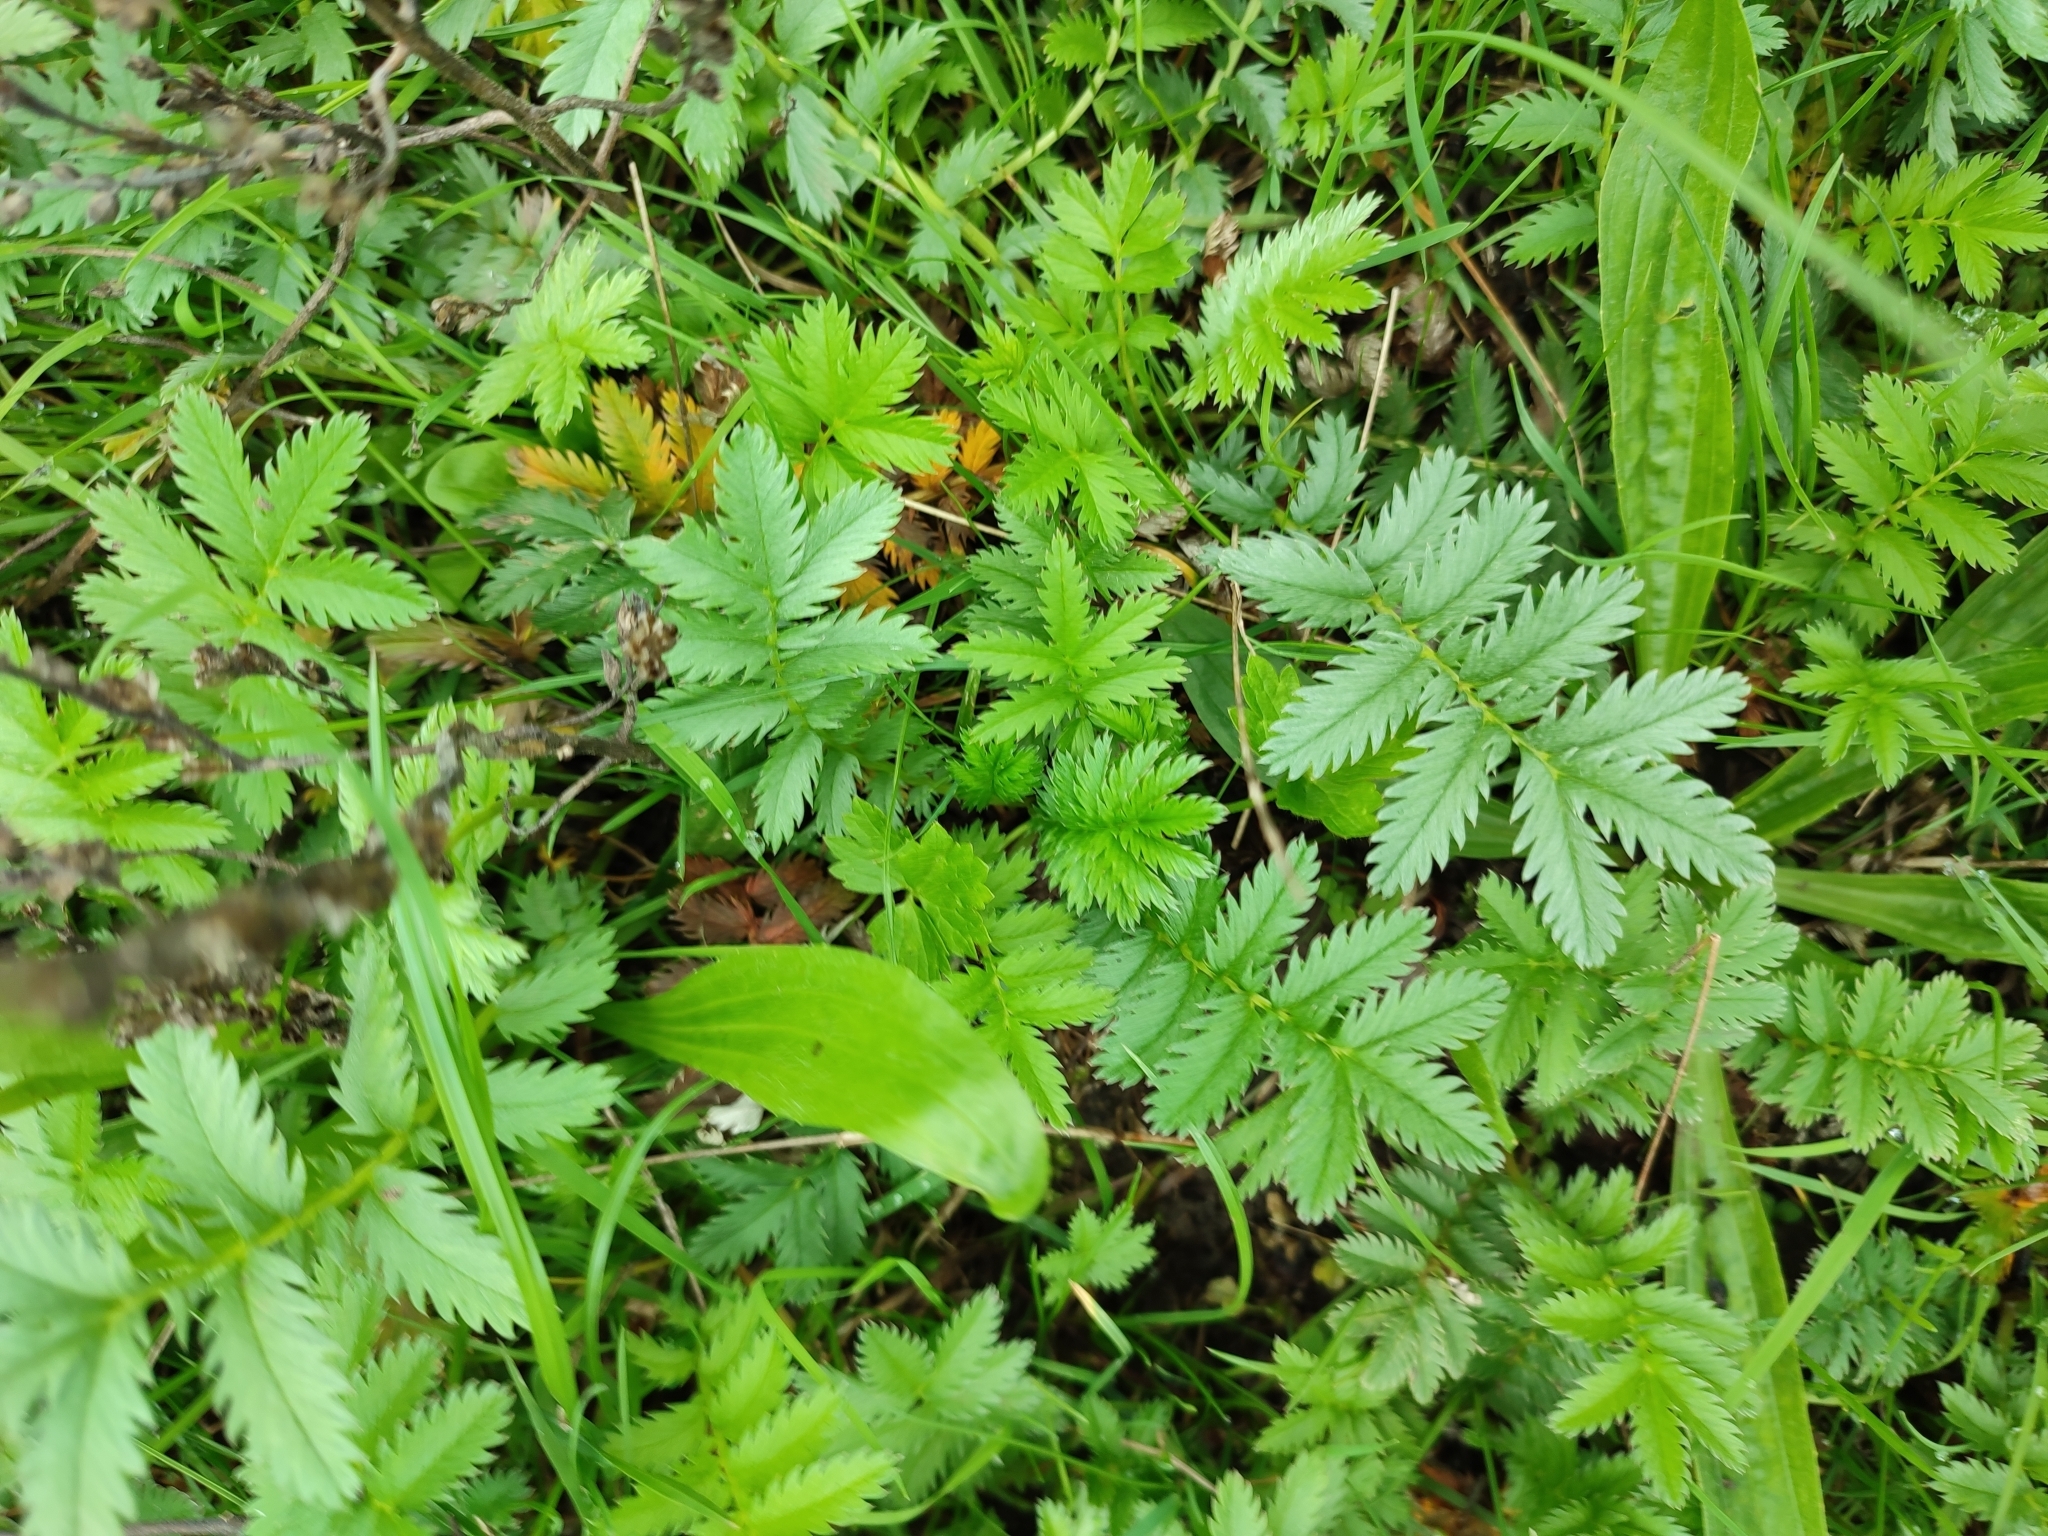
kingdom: Plantae
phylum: Tracheophyta
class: Magnoliopsida
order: Rosales
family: Rosaceae
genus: Argentina
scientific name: Argentina anserina
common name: Common silverweed
